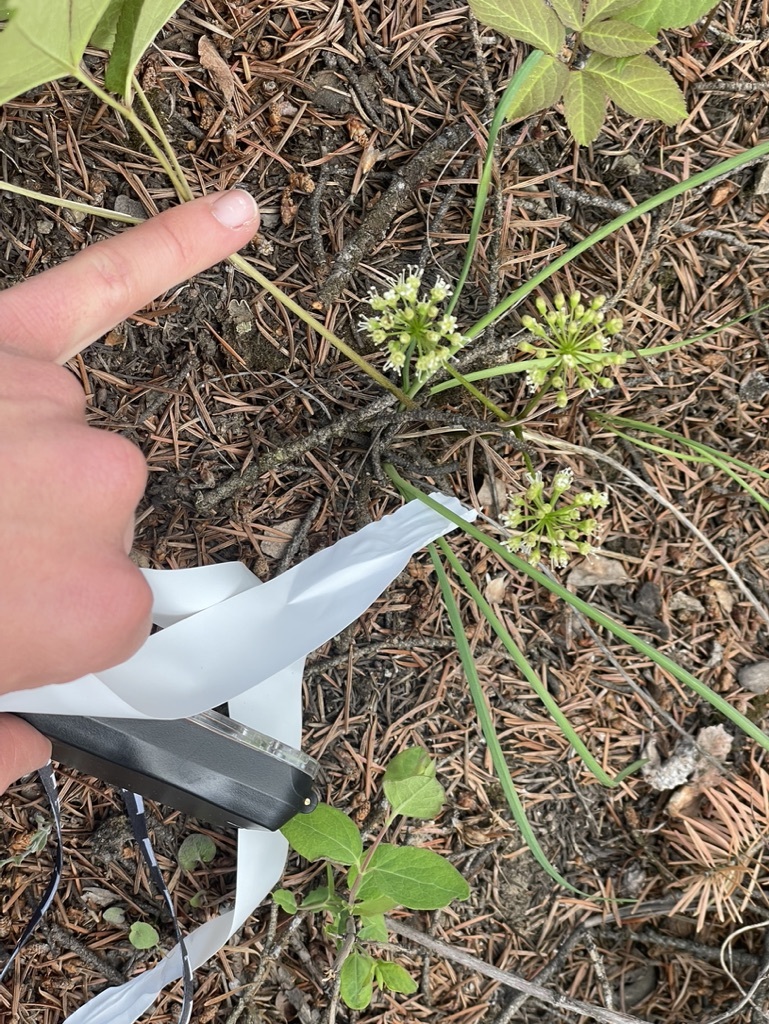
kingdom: Plantae
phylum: Tracheophyta
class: Magnoliopsida
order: Apiales
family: Araliaceae
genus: Aralia
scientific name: Aralia nudicaulis
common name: Wild sarsaparilla
